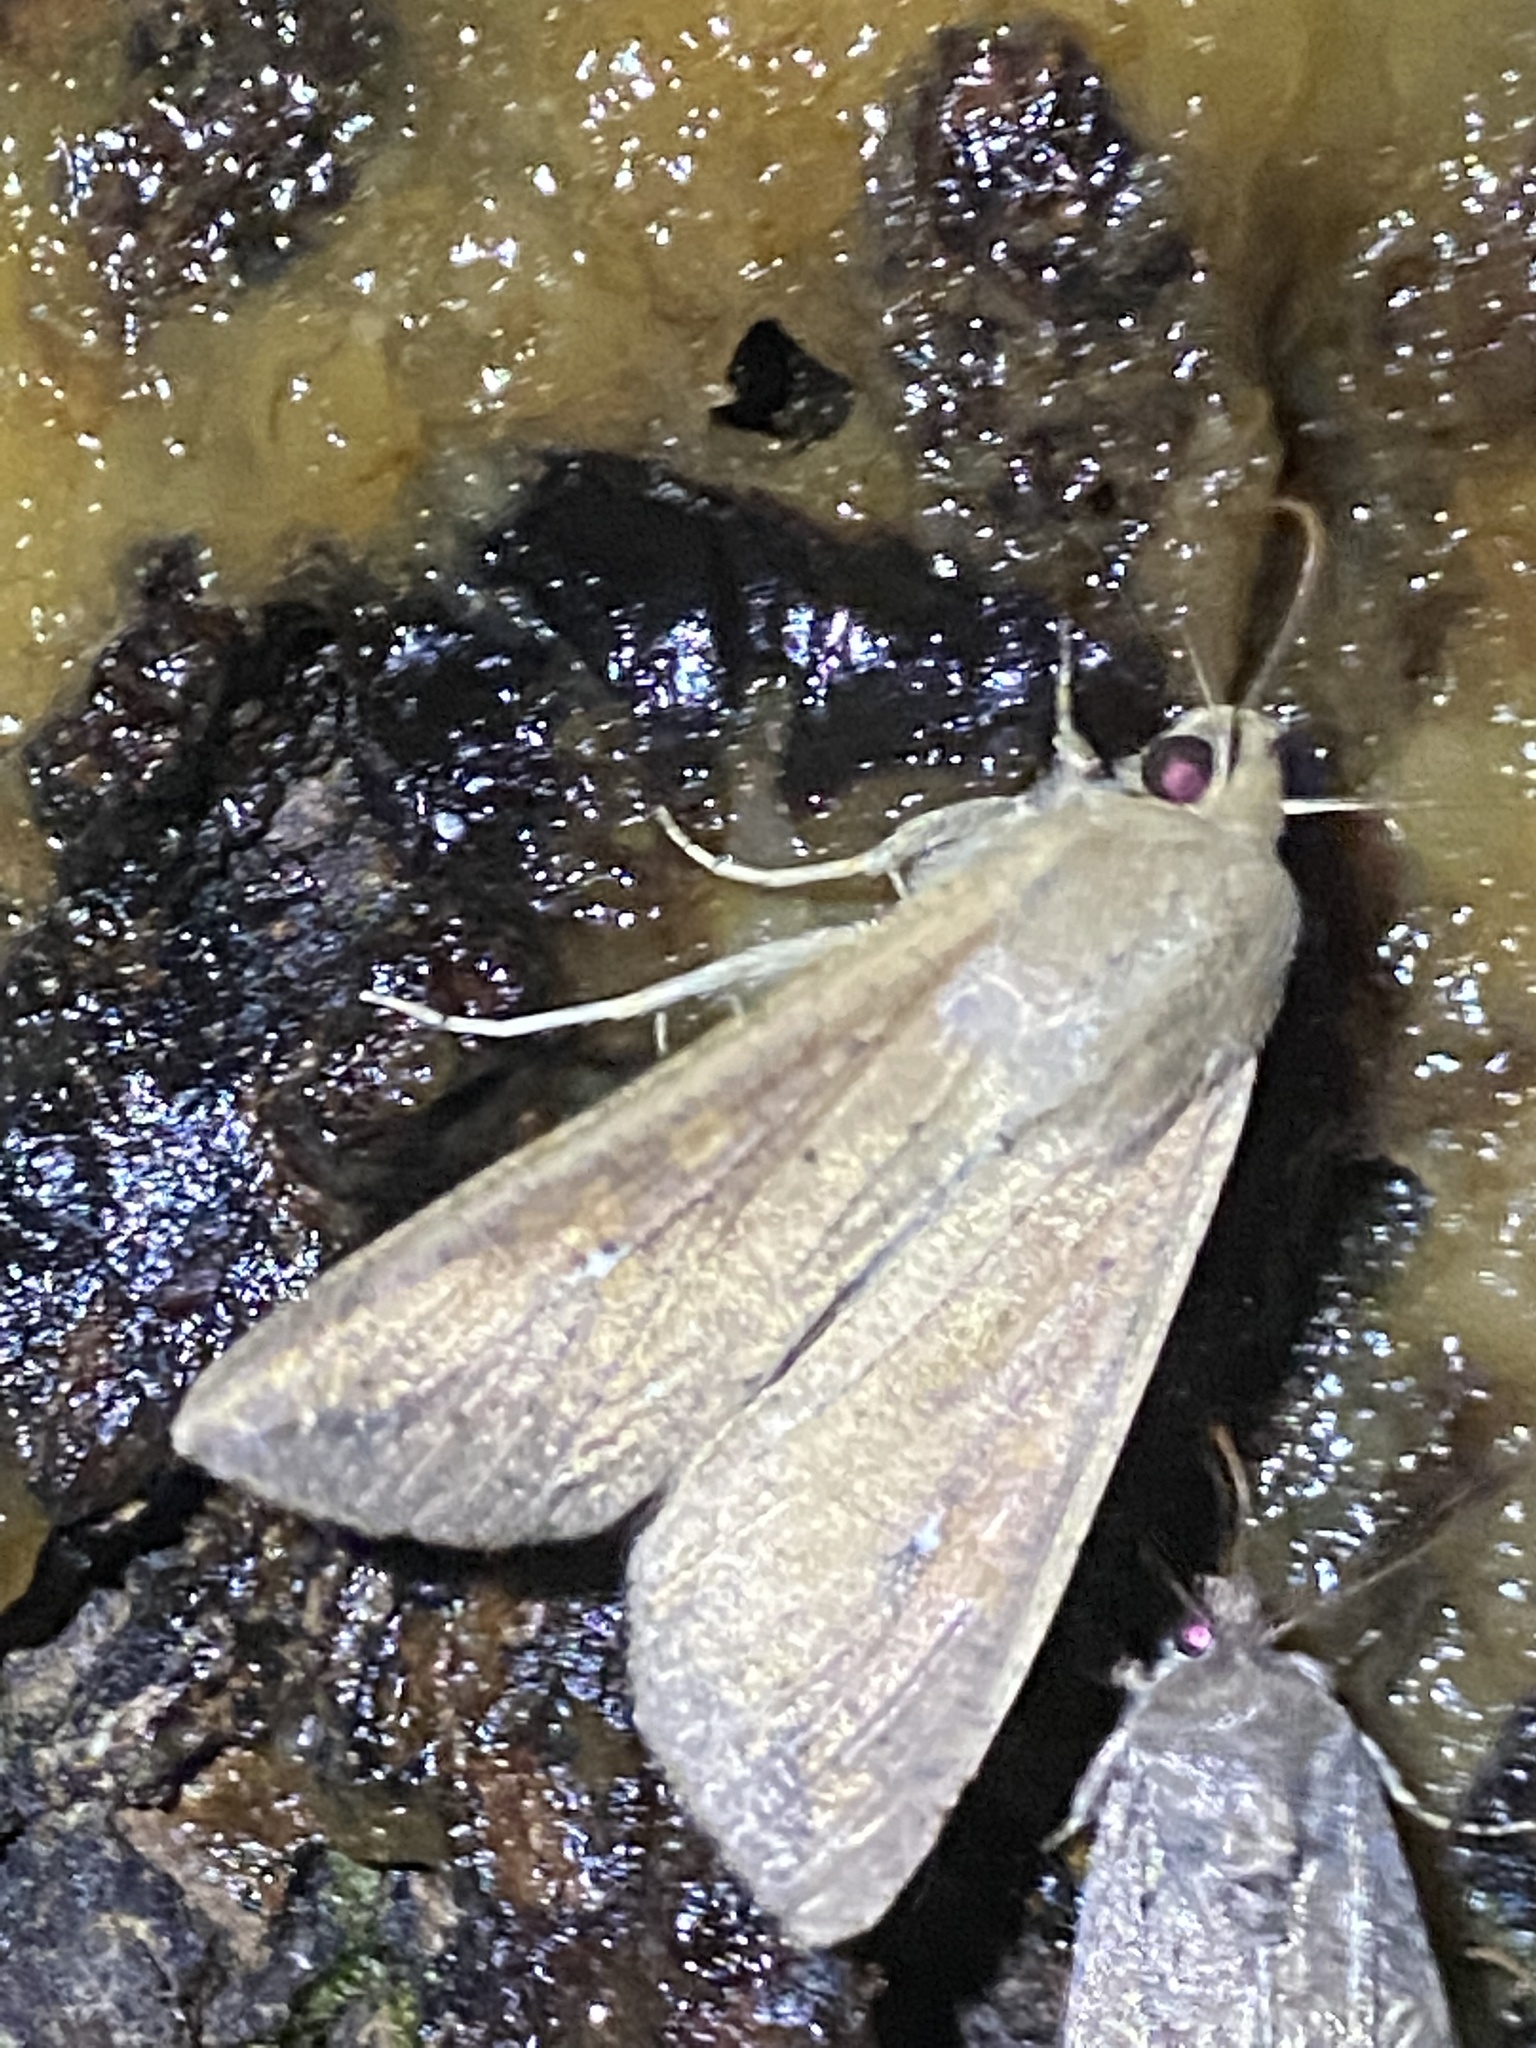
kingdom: Animalia
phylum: Arthropoda
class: Insecta
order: Lepidoptera
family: Noctuidae
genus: Mythimna
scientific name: Mythimna unipuncta
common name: White-speck
